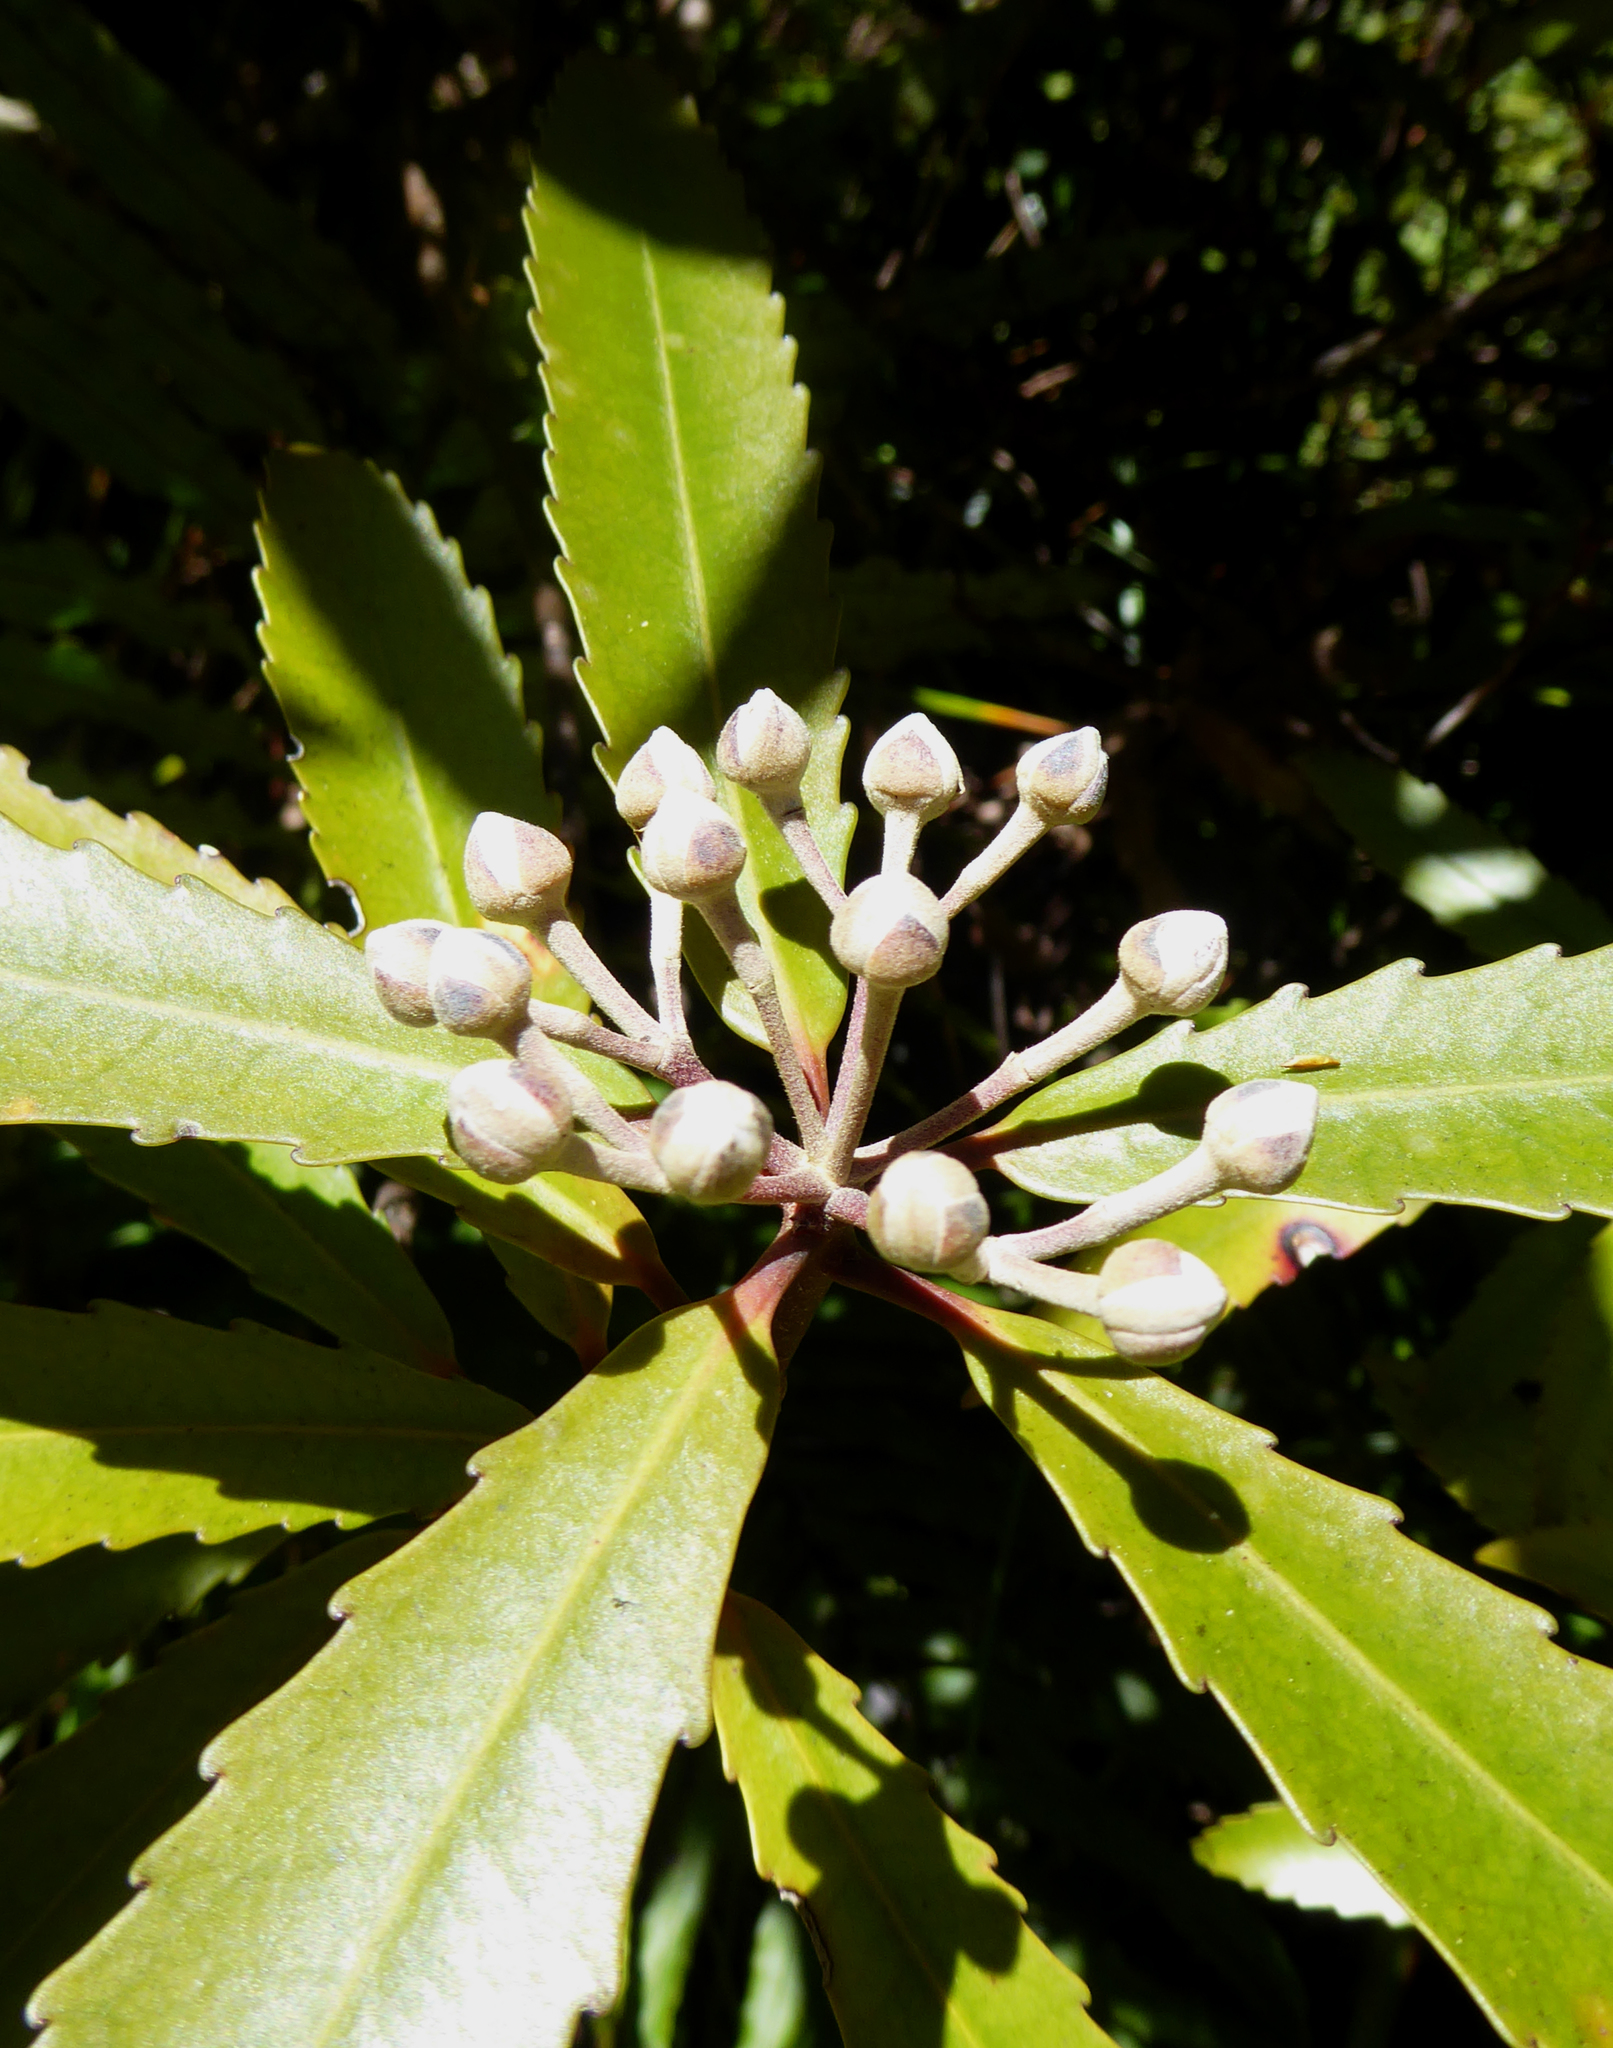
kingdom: Plantae
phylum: Tracheophyta
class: Magnoliopsida
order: Crossosomatales
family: Ixerbaceae
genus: Ixerba
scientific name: Ixerba brexioides
